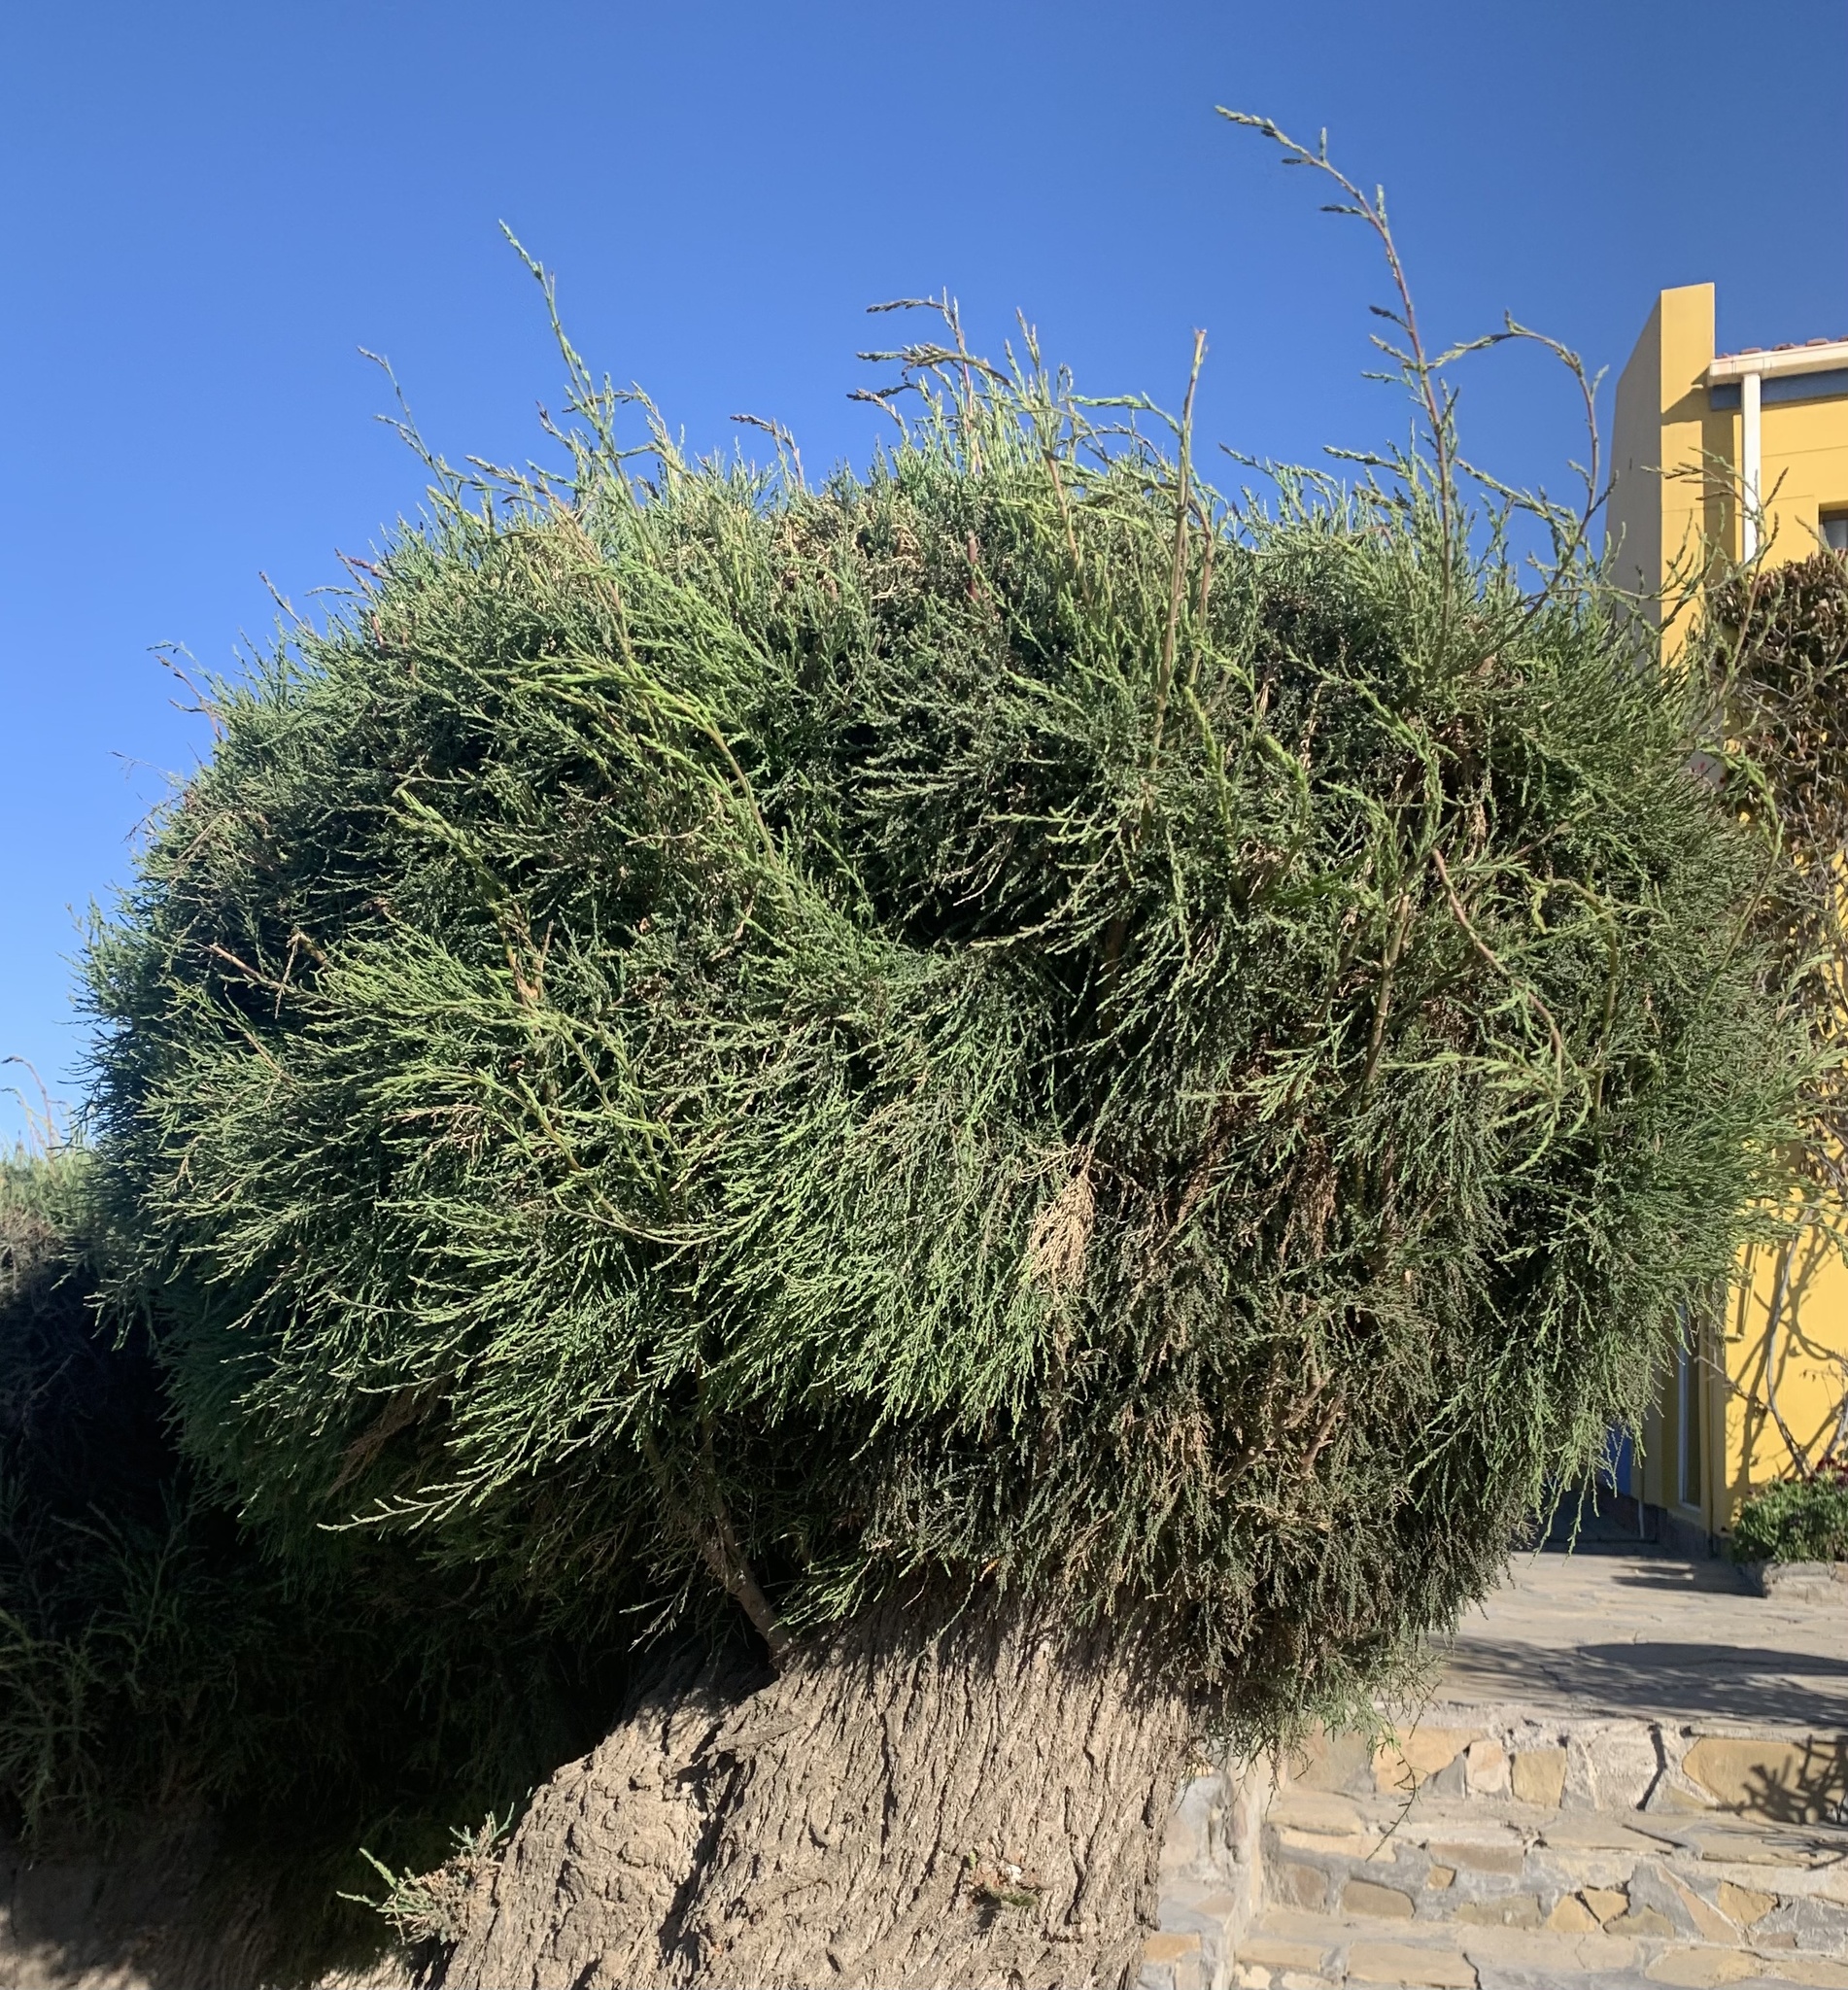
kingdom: Plantae
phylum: Tracheophyta
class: Magnoliopsida
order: Caryophyllales
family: Tamaricaceae
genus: Tamarix
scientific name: Tamarix usneoides
